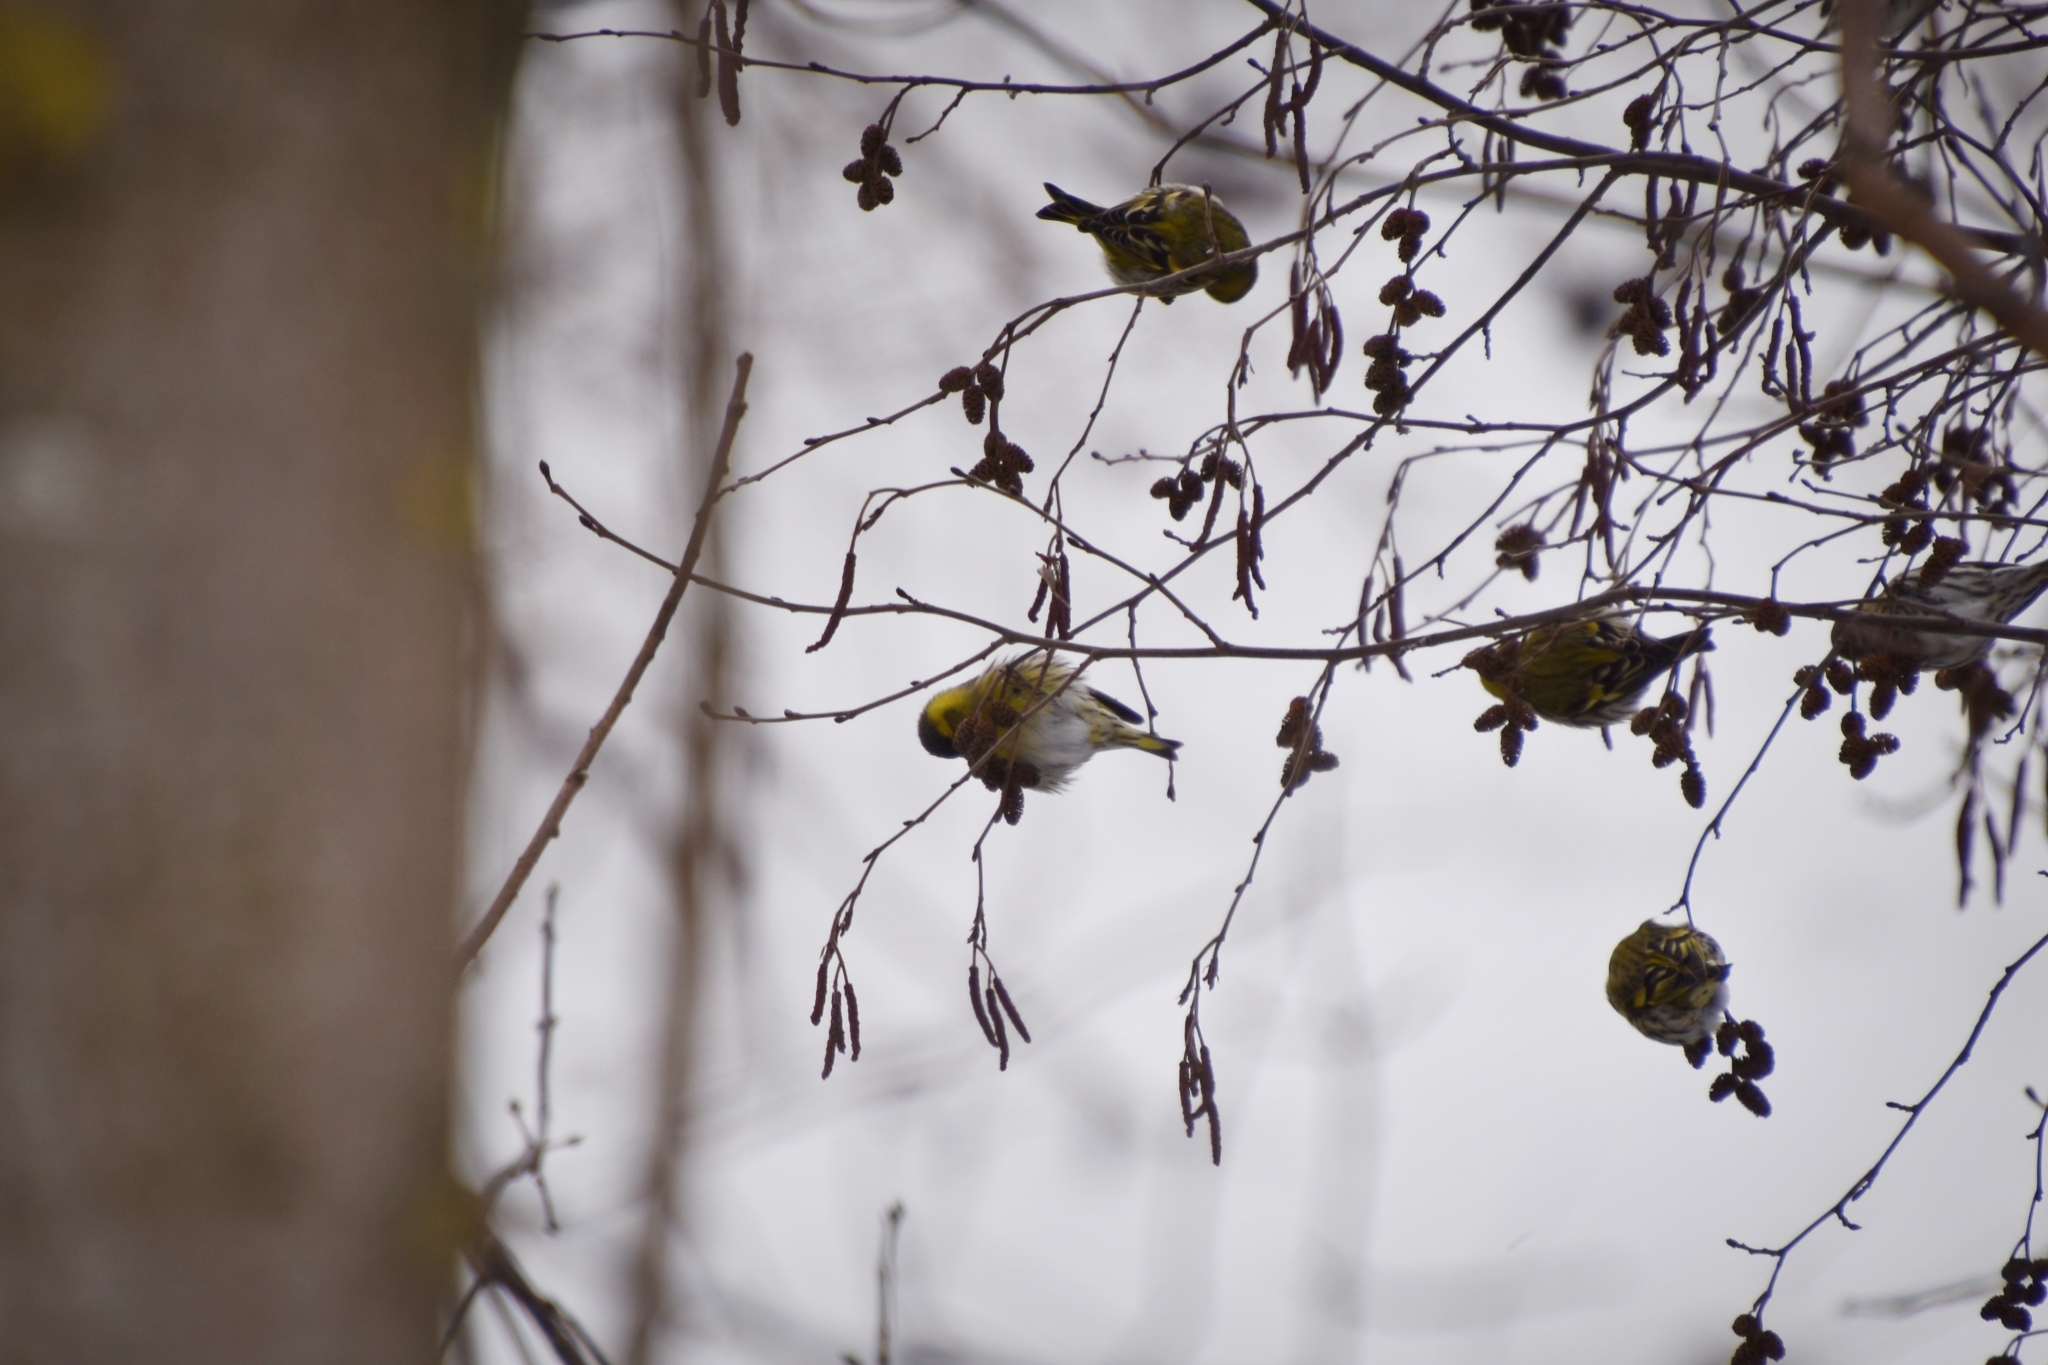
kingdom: Animalia
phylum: Chordata
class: Aves
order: Passeriformes
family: Fringillidae
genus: Spinus
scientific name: Spinus spinus
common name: Eurasian siskin
